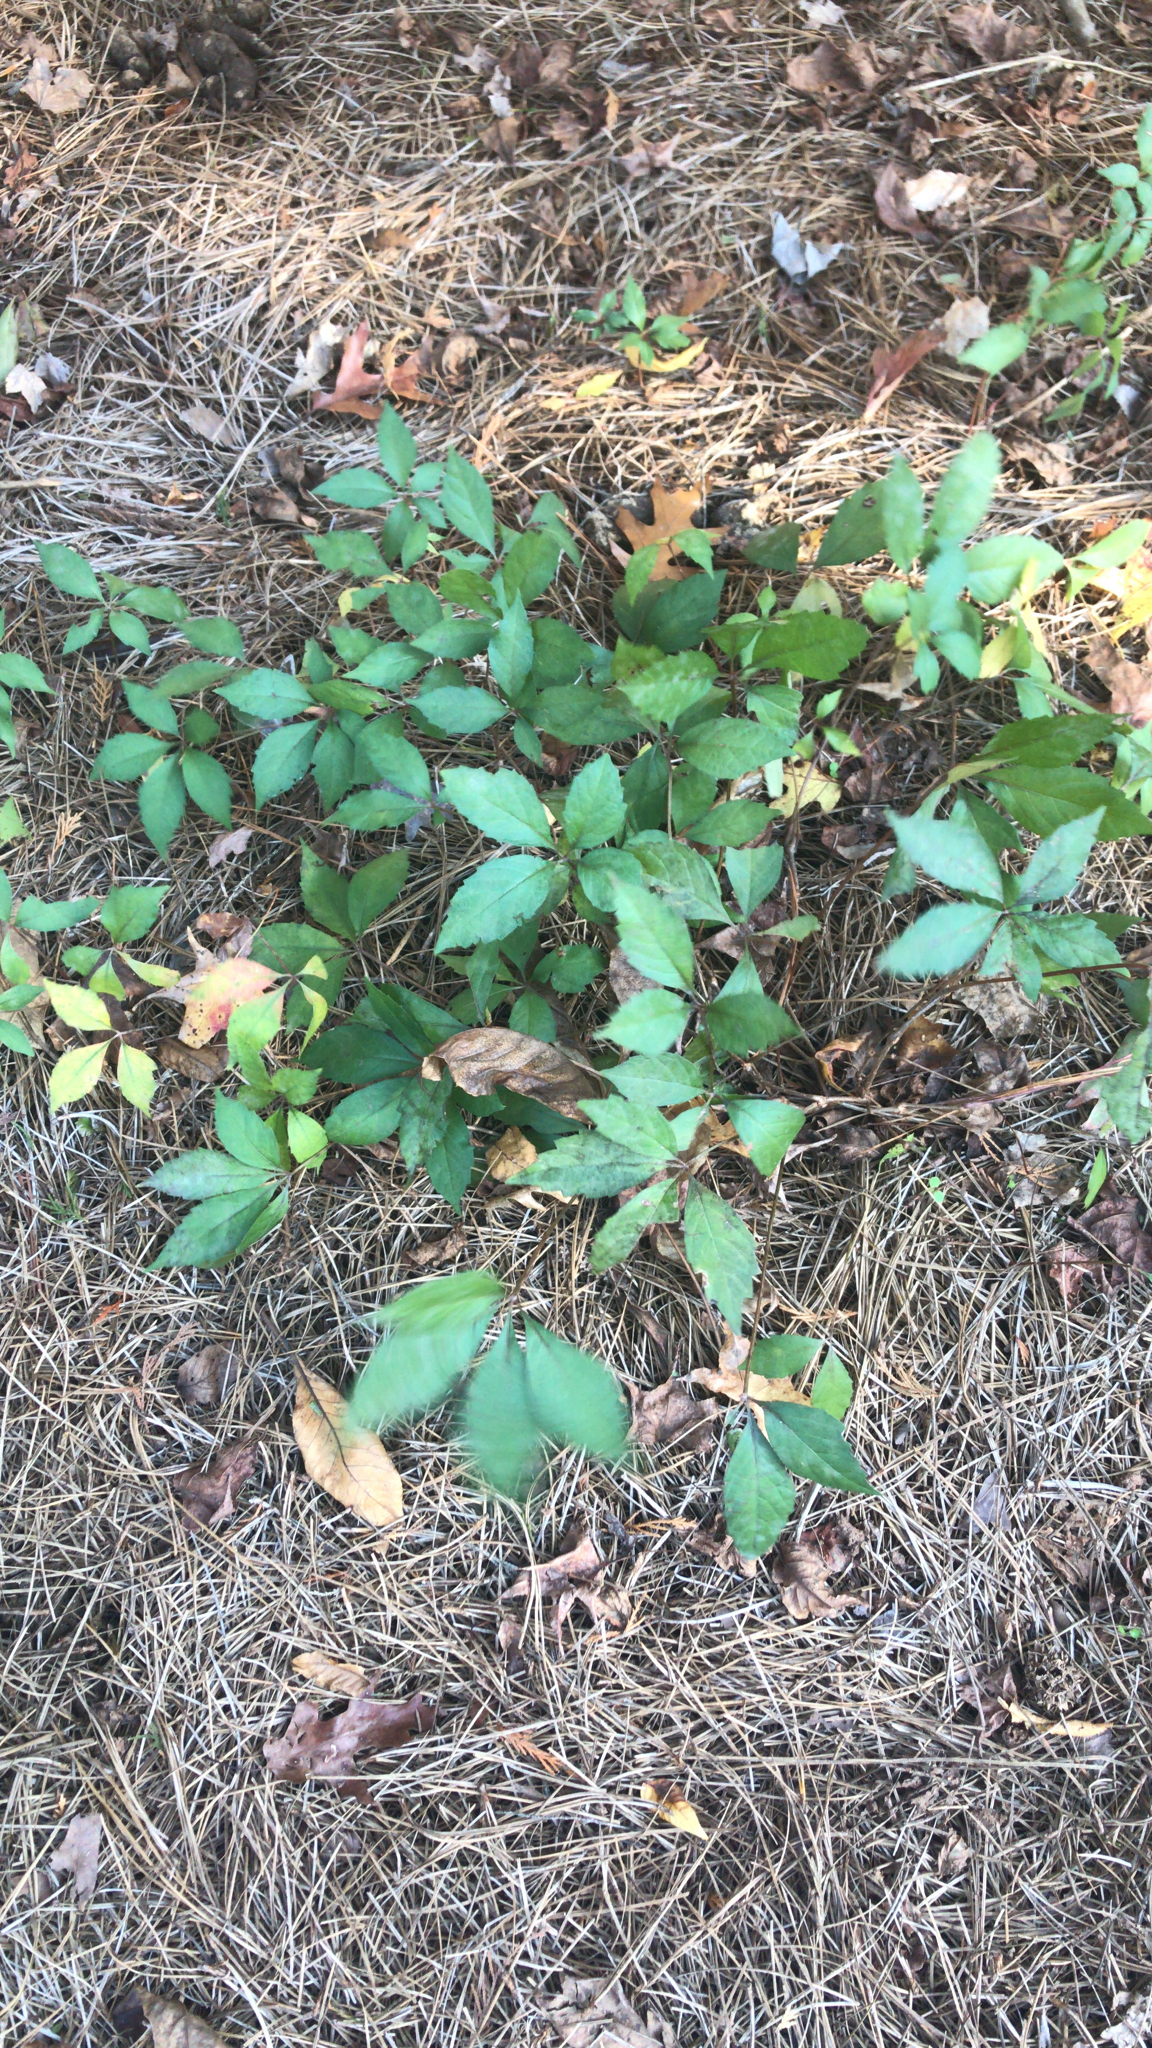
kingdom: Plantae
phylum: Tracheophyta
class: Magnoliopsida
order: Vitales
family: Vitaceae
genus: Parthenocissus
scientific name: Parthenocissus quinquefolia
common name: Virginia-creeper
